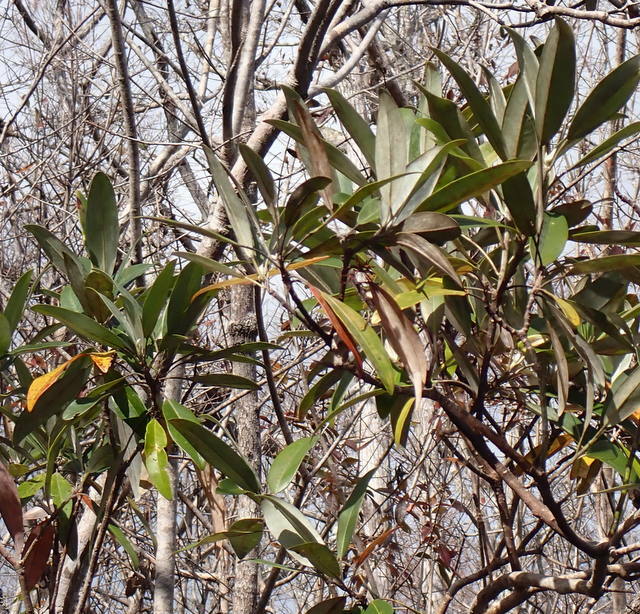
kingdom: Plantae
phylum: Tracheophyta
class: Magnoliopsida
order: Magnoliales
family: Magnoliaceae
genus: Magnolia
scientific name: Magnolia virginiana
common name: Swamp bay
